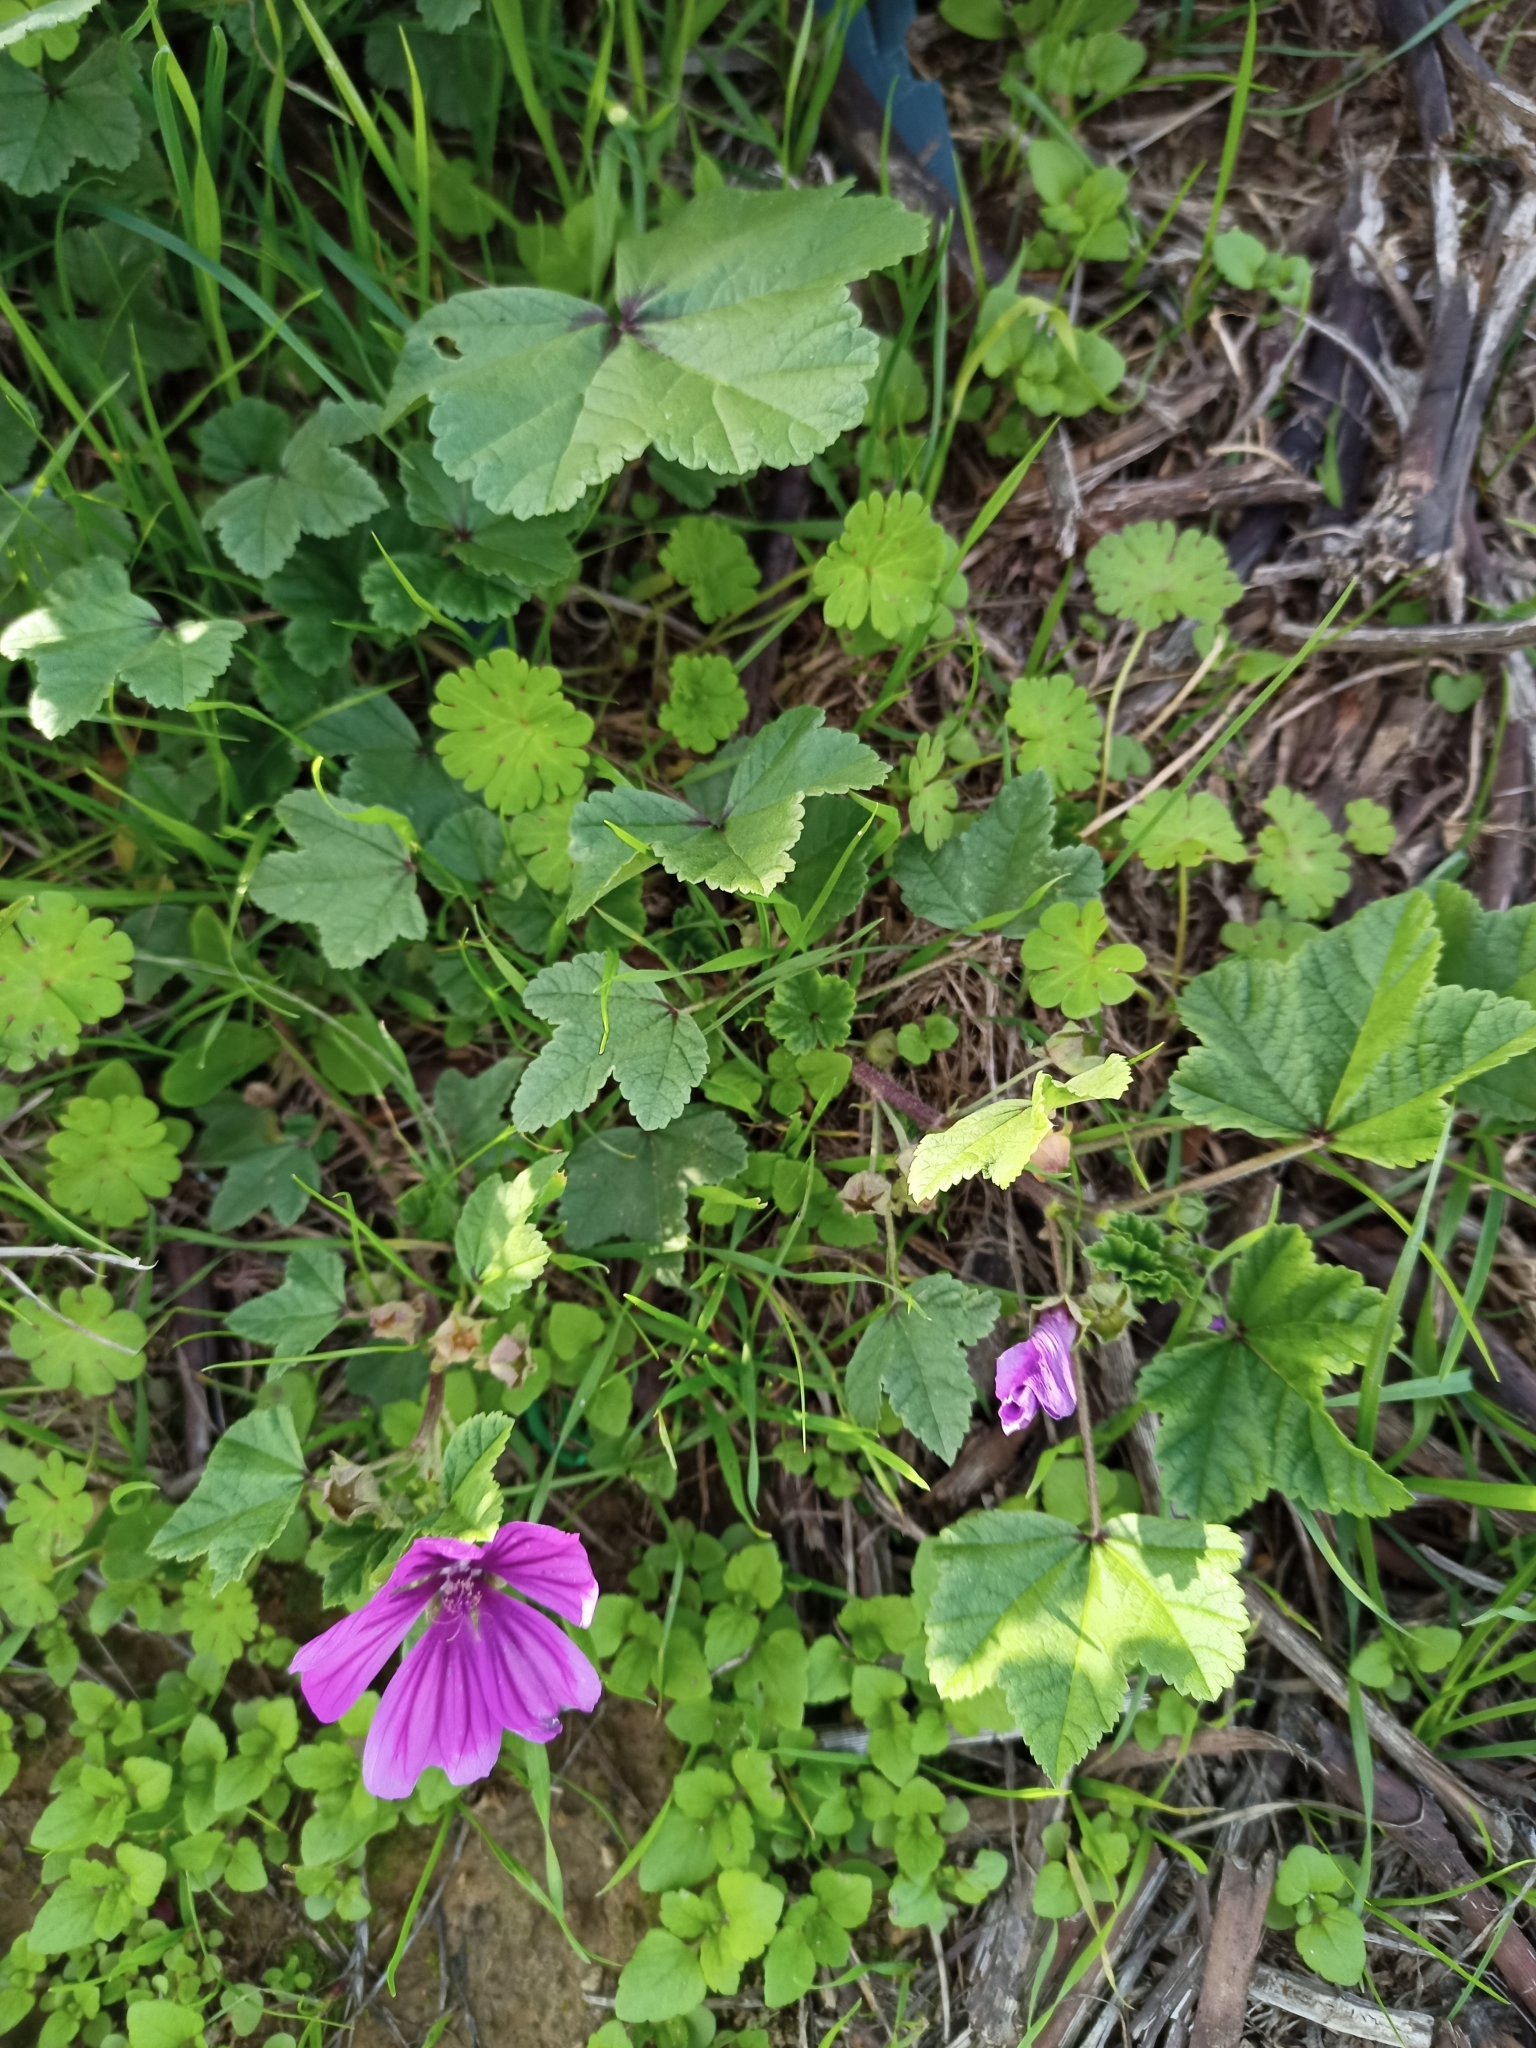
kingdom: Plantae
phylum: Tracheophyta
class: Magnoliopsida
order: Malvales
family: Malvaceae
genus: Malva
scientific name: Malva sylvestris
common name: Common mallow
